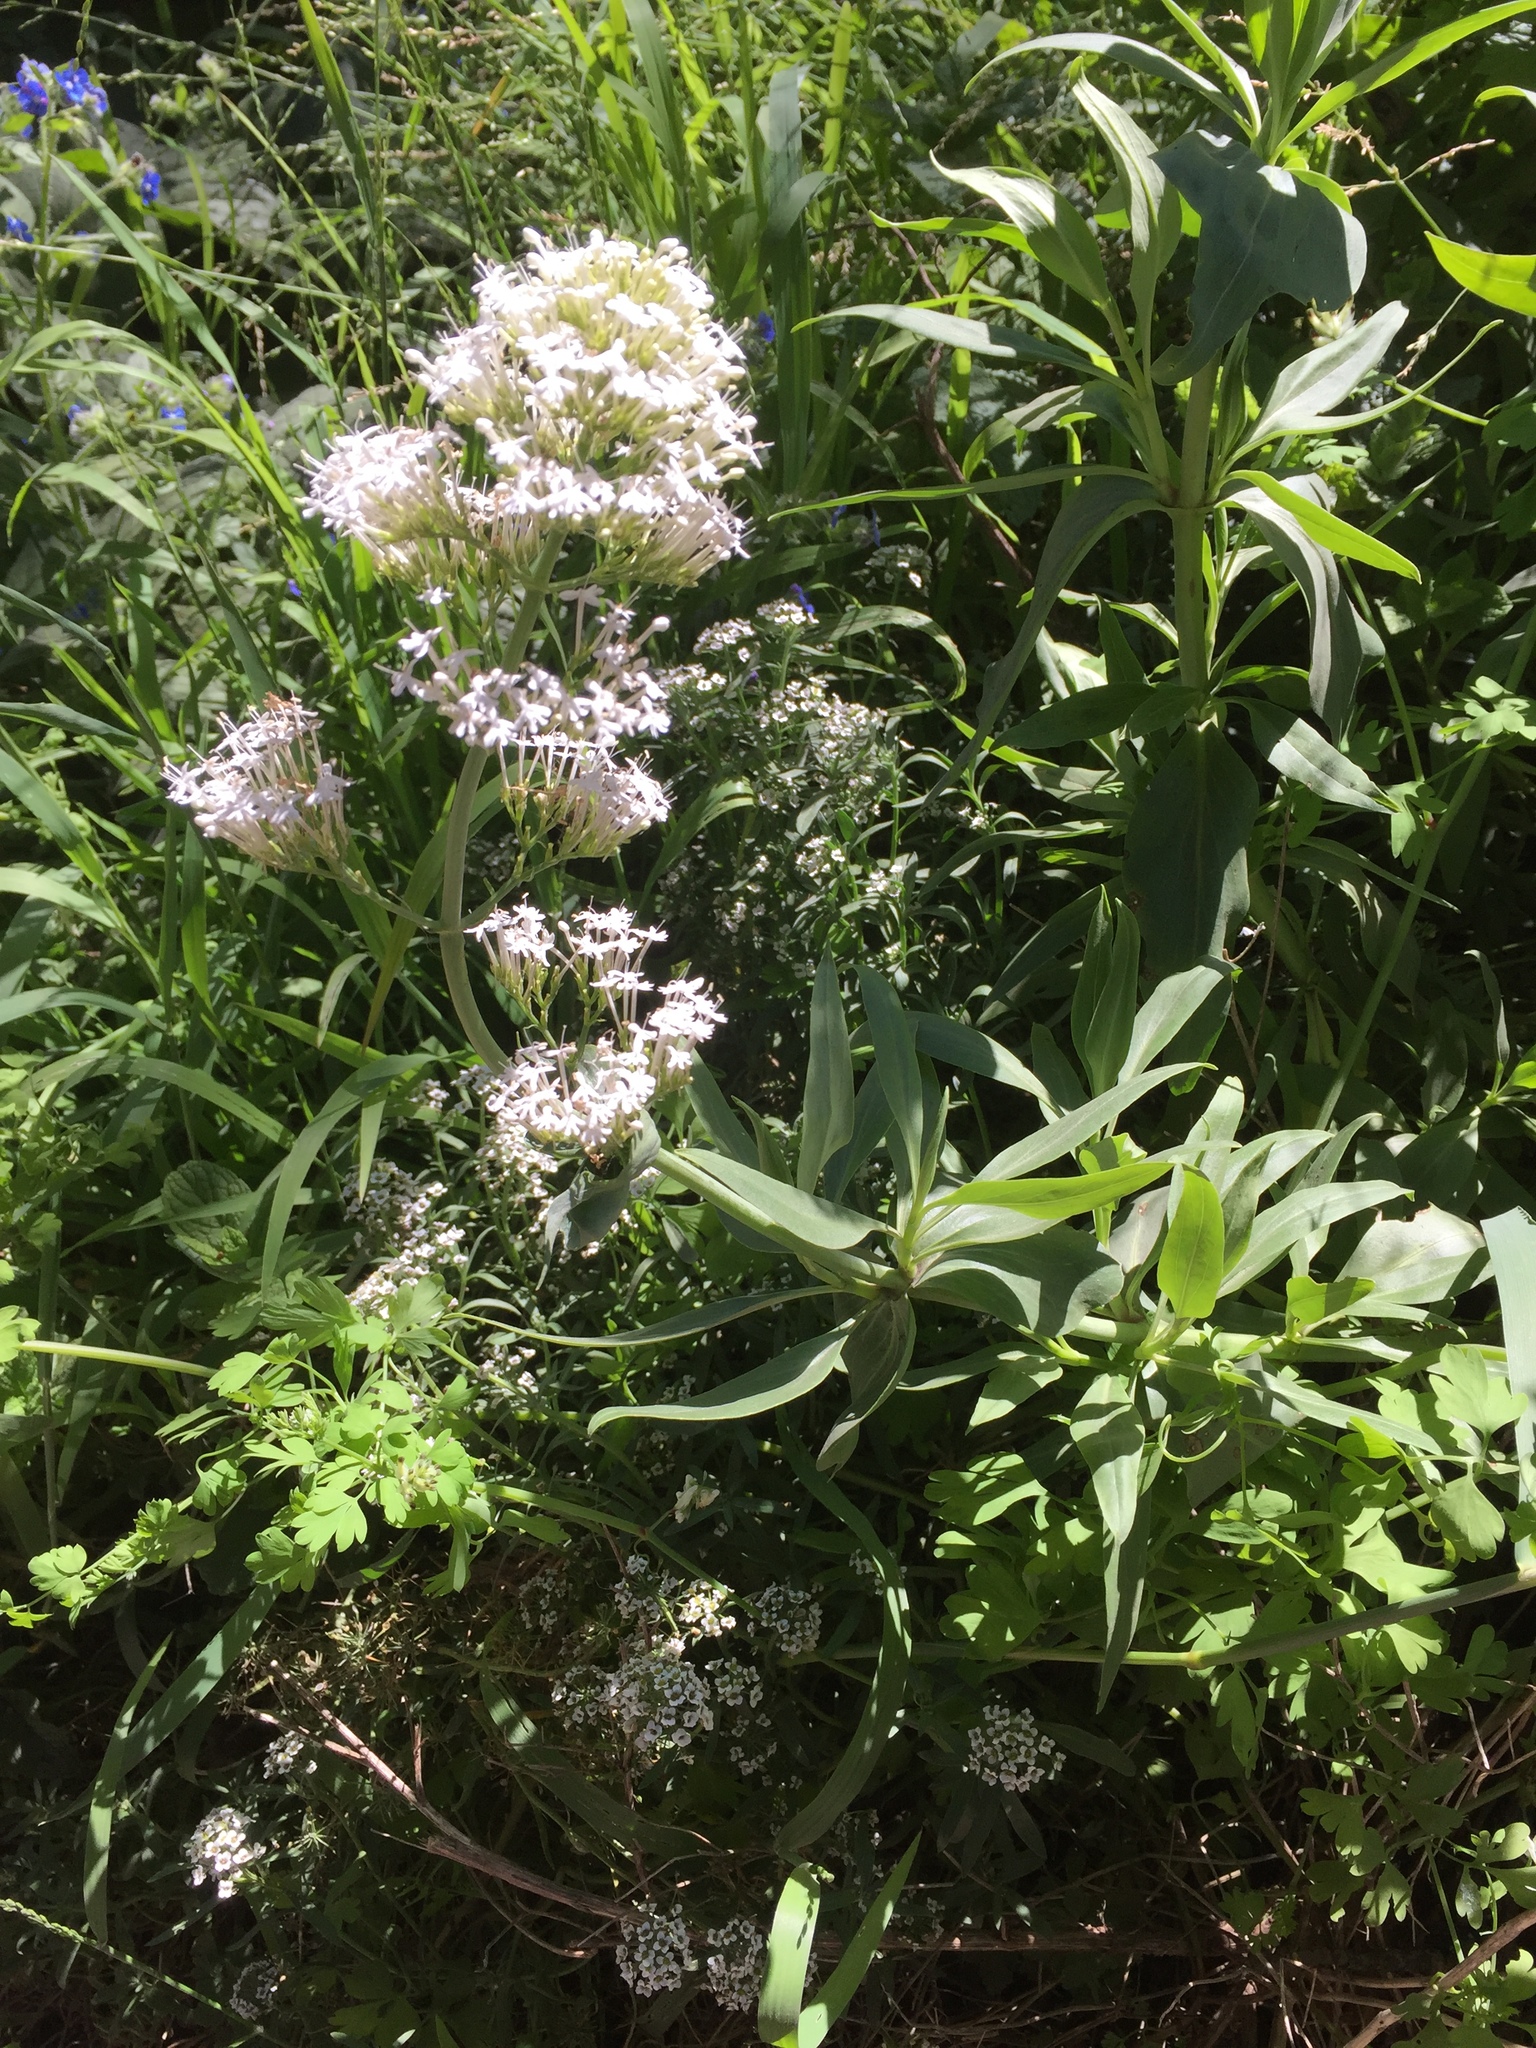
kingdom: Plantae
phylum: Tracheophyta
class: Magnoliopsida
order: Dipsacales
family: Caprifoliaceae
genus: Centranthus
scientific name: Centranthus ruber
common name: Red valerian
